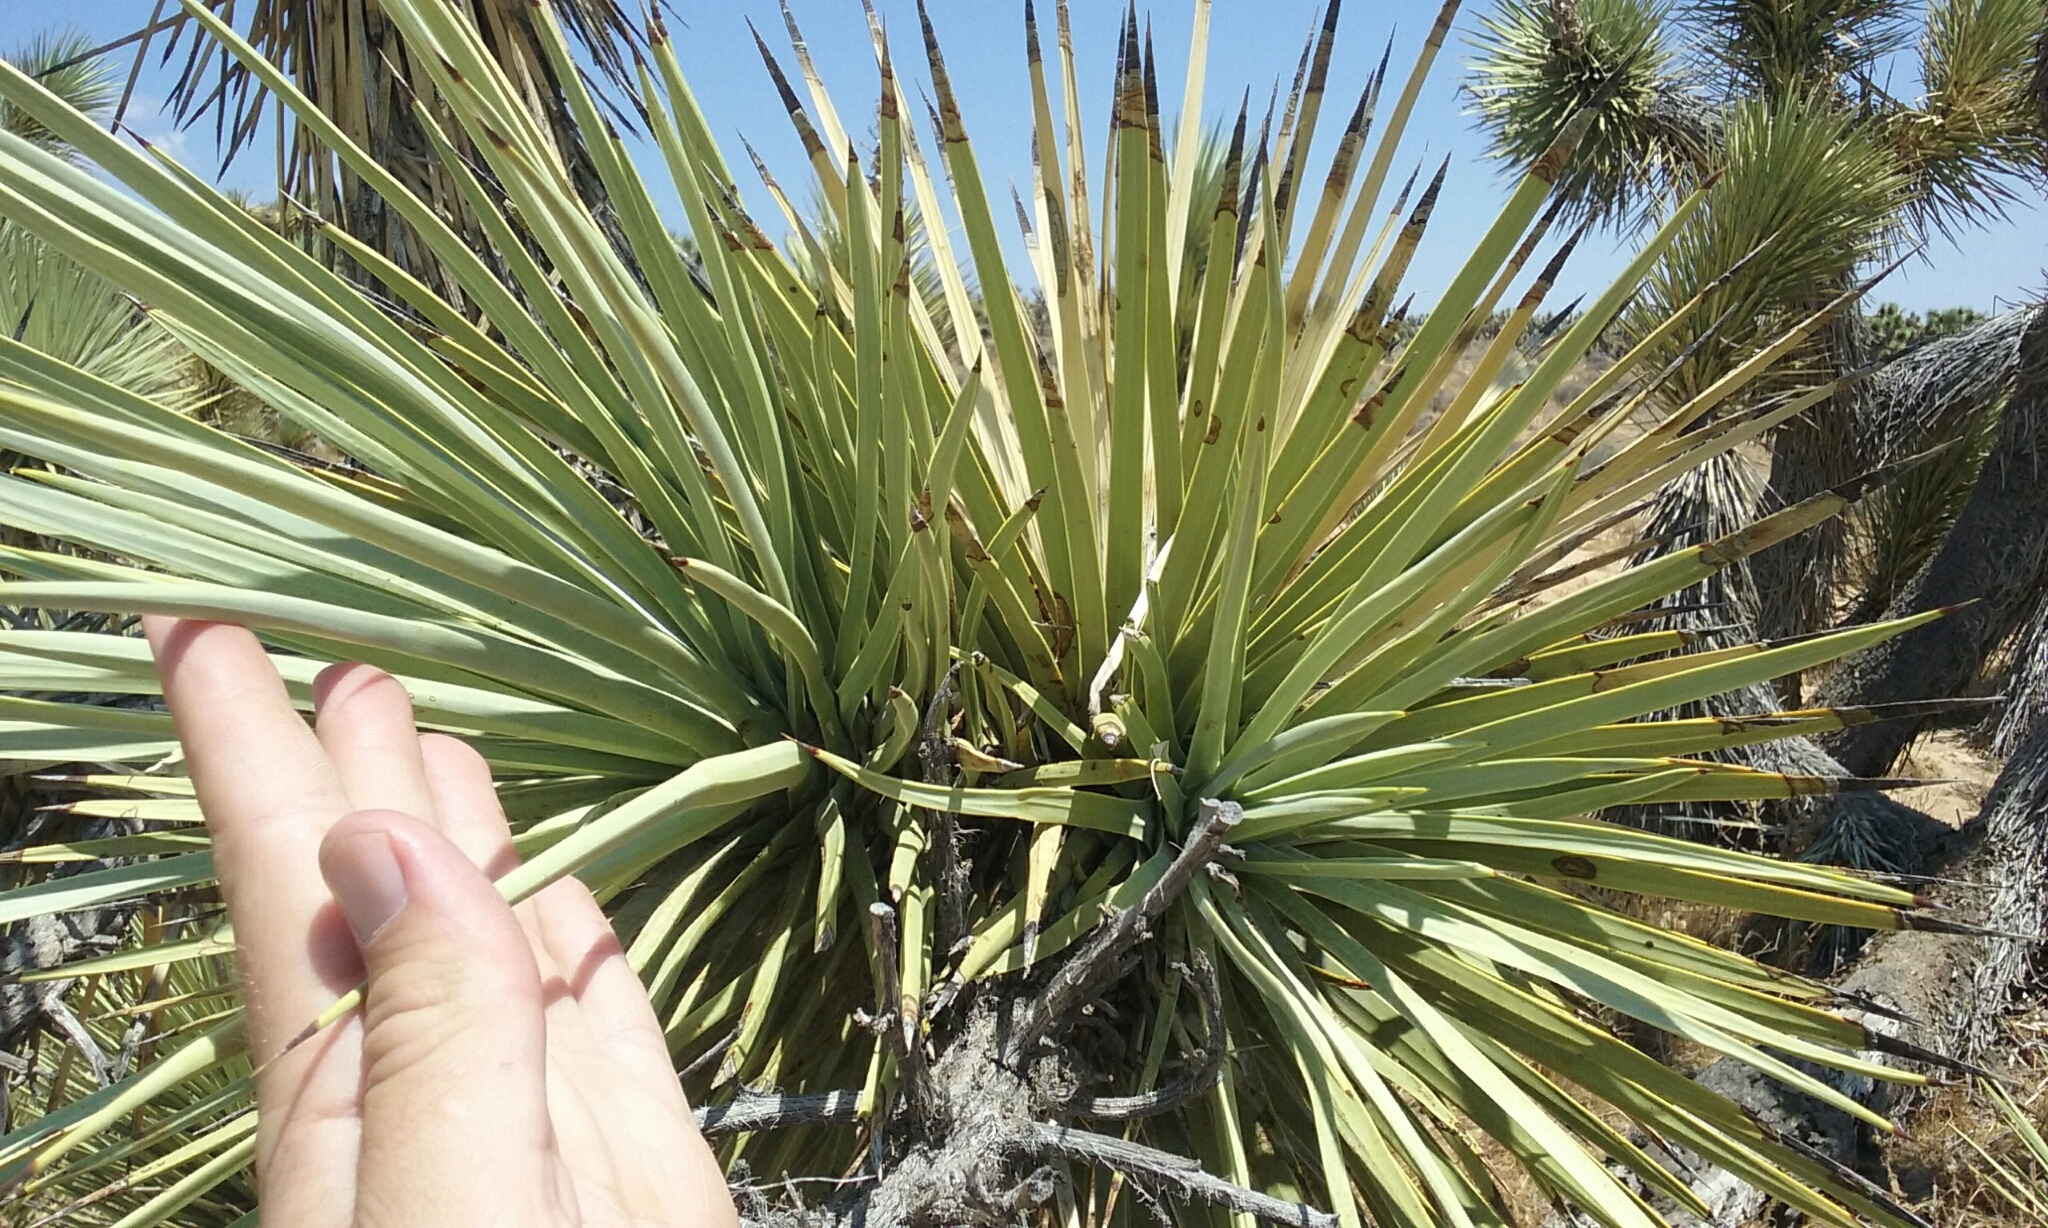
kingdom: Plantae
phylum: Tracheophyta
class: Liliopsida
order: Asparagales
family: Asparagaceae
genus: Yucca
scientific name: Yucca brevifolia
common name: Joshua tree
